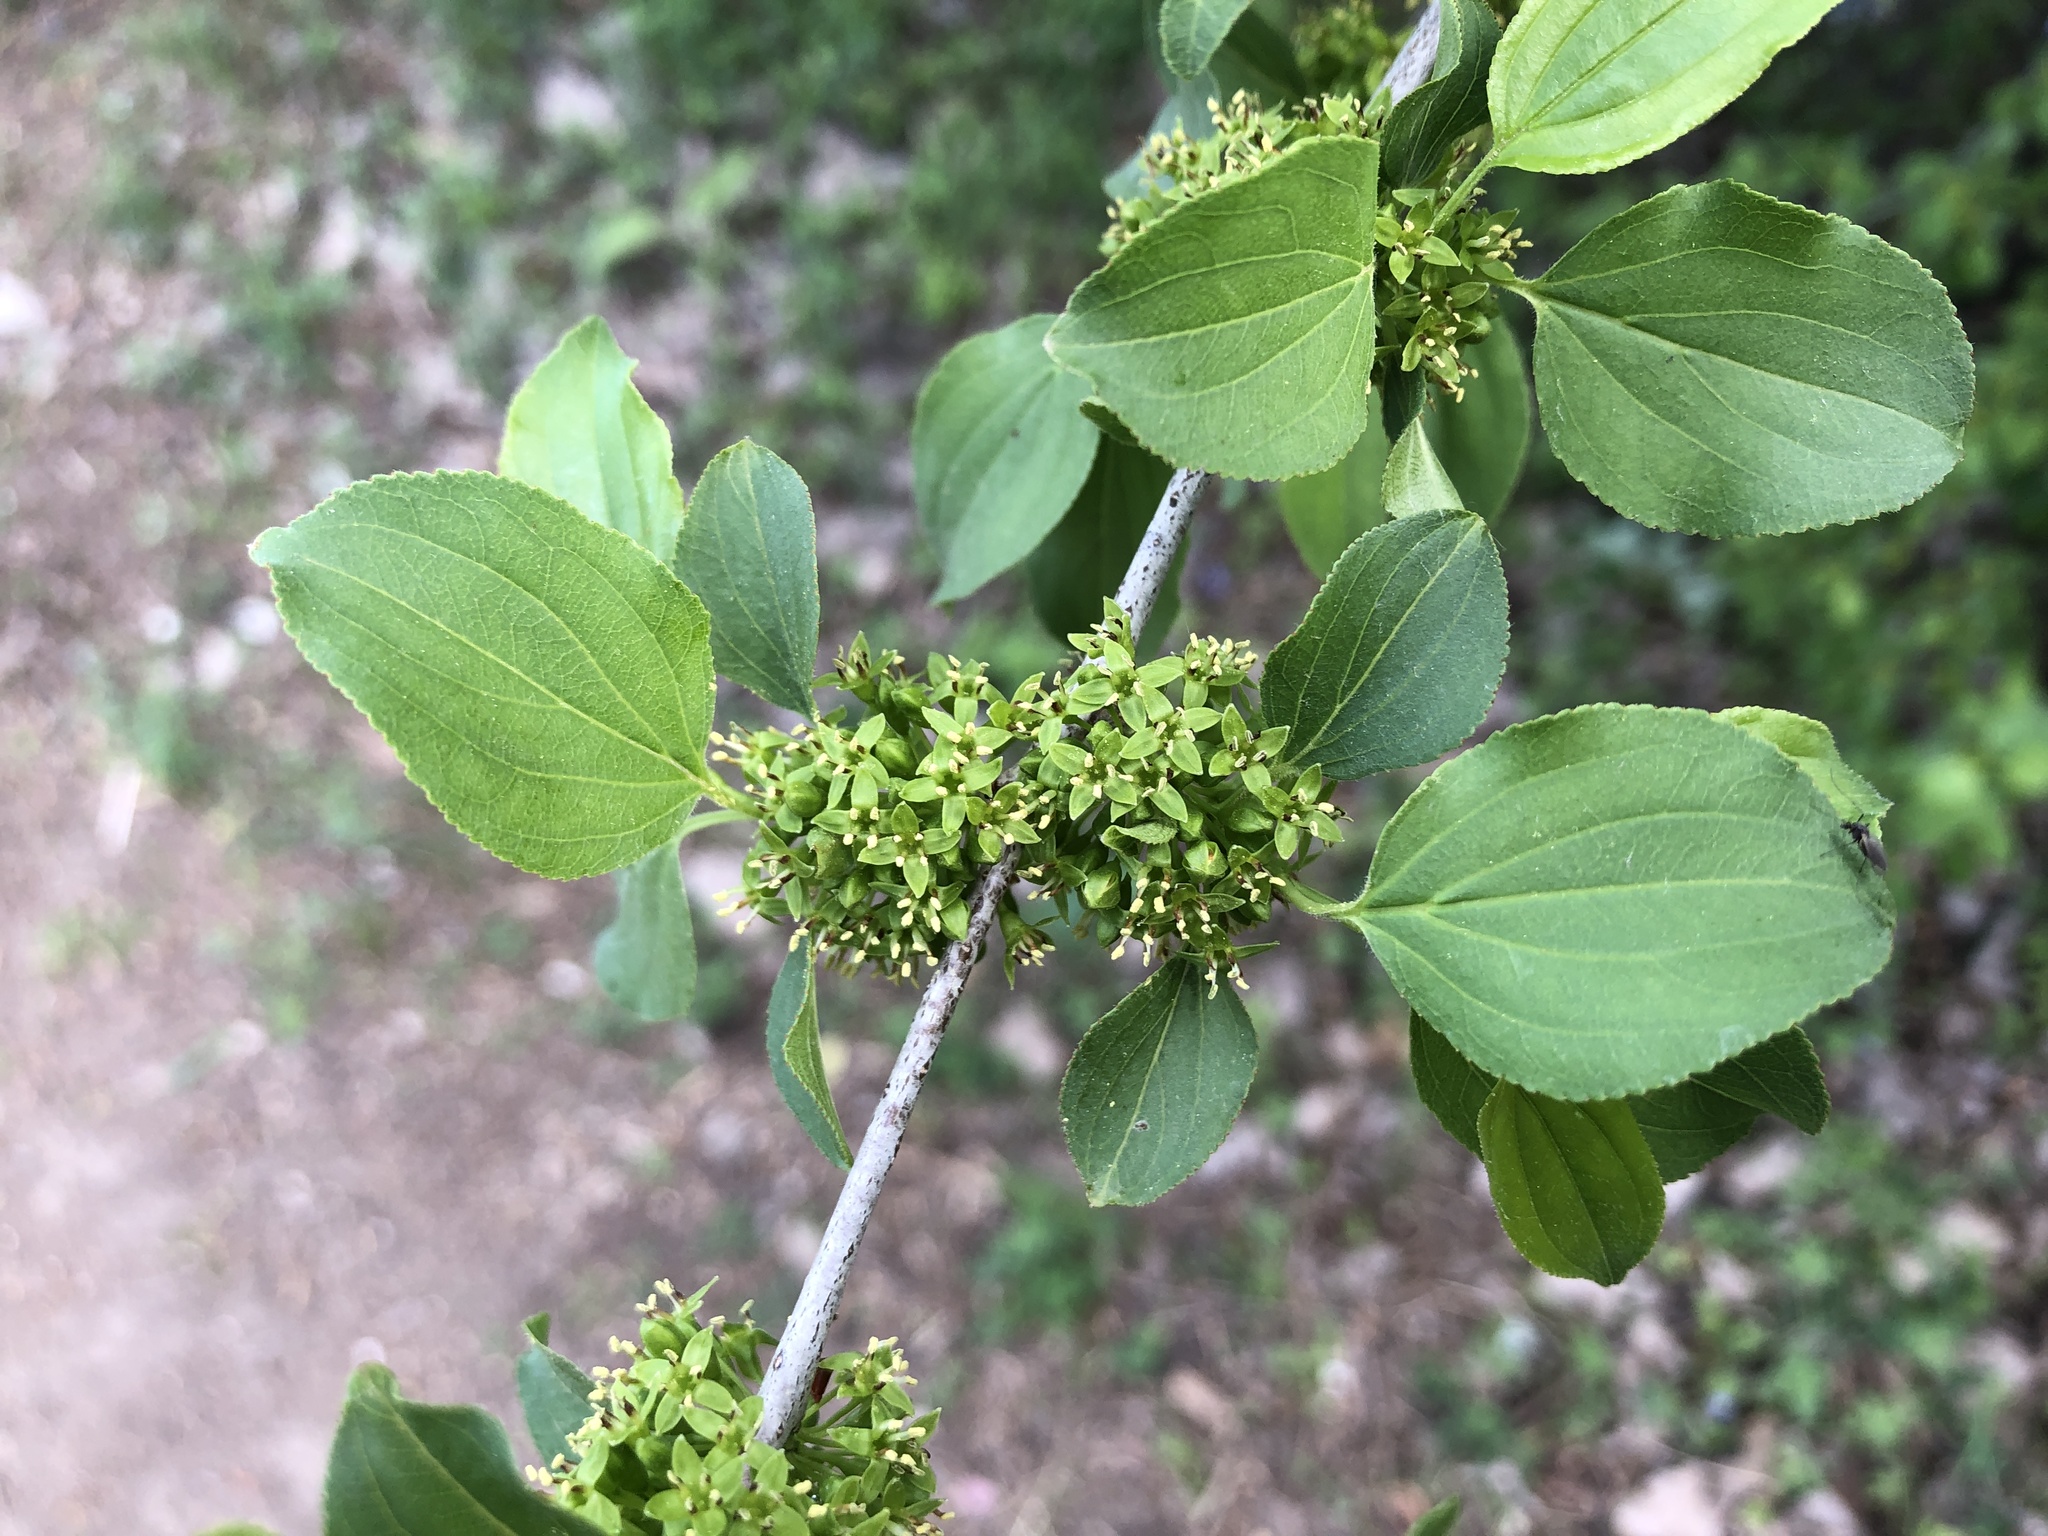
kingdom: Plantae
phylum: Tracheophyta
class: Magnoliopsida
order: Rosales
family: Rhamnaceae
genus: Rhamnus
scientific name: Rhamnus cathartica
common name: Common buckthorn
